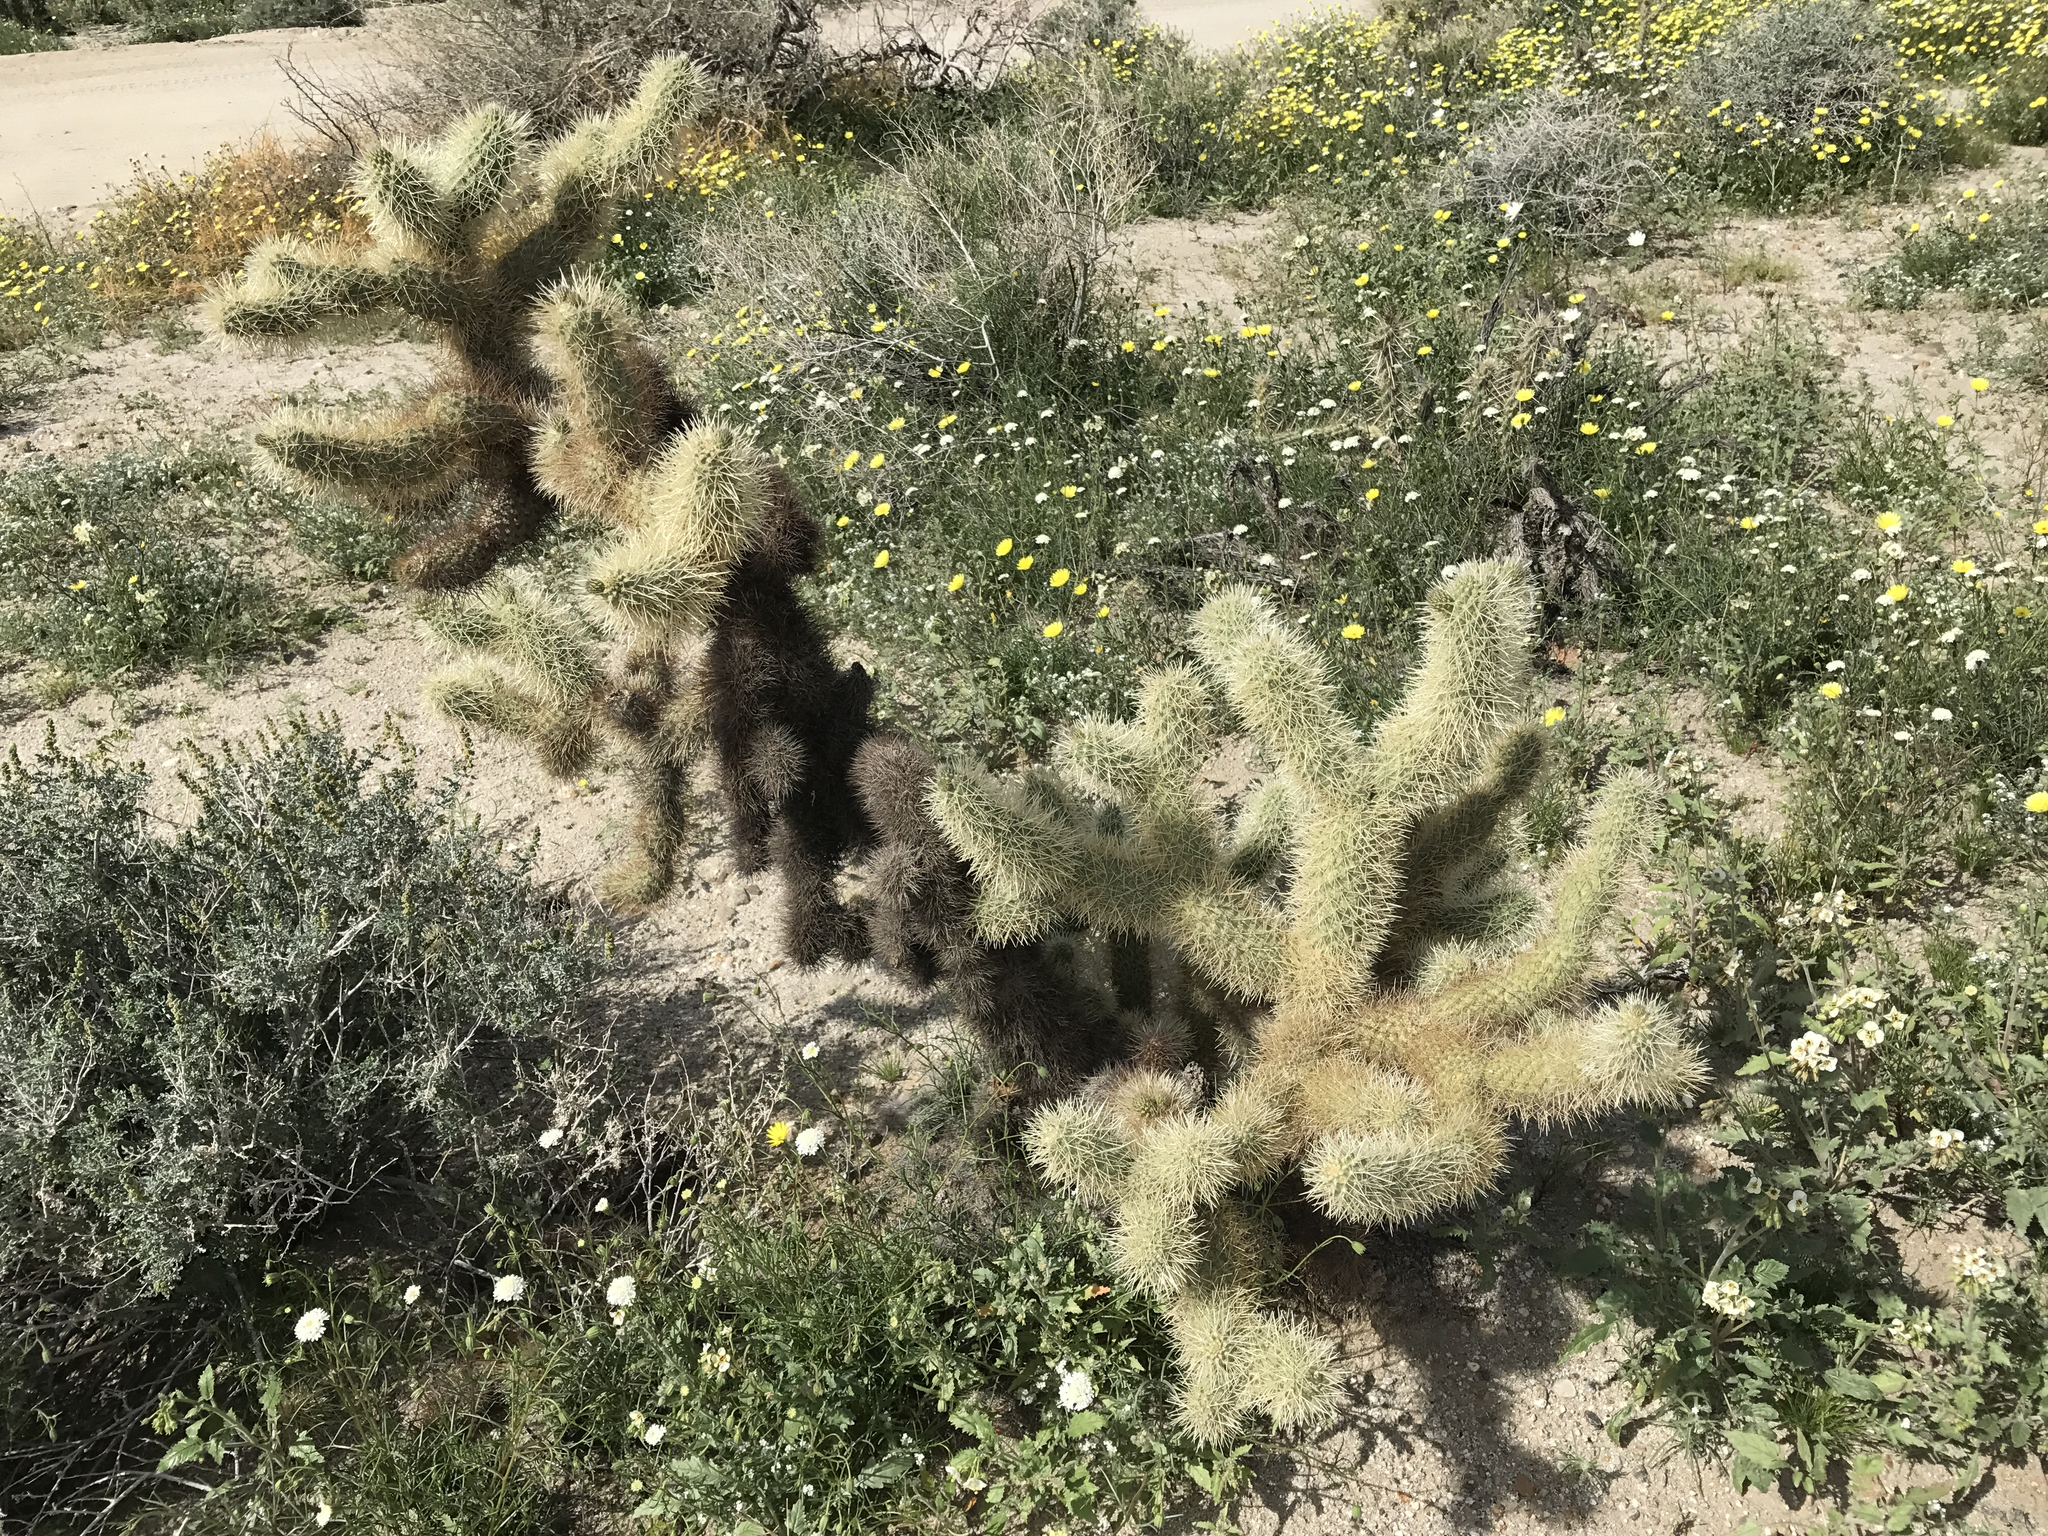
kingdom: Plantae
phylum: Tracheophyta
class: Magnoliopsida
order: Caryophyllales
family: Cactaceae
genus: Cylindropuntia
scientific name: Cylindropuntia fosbergii
